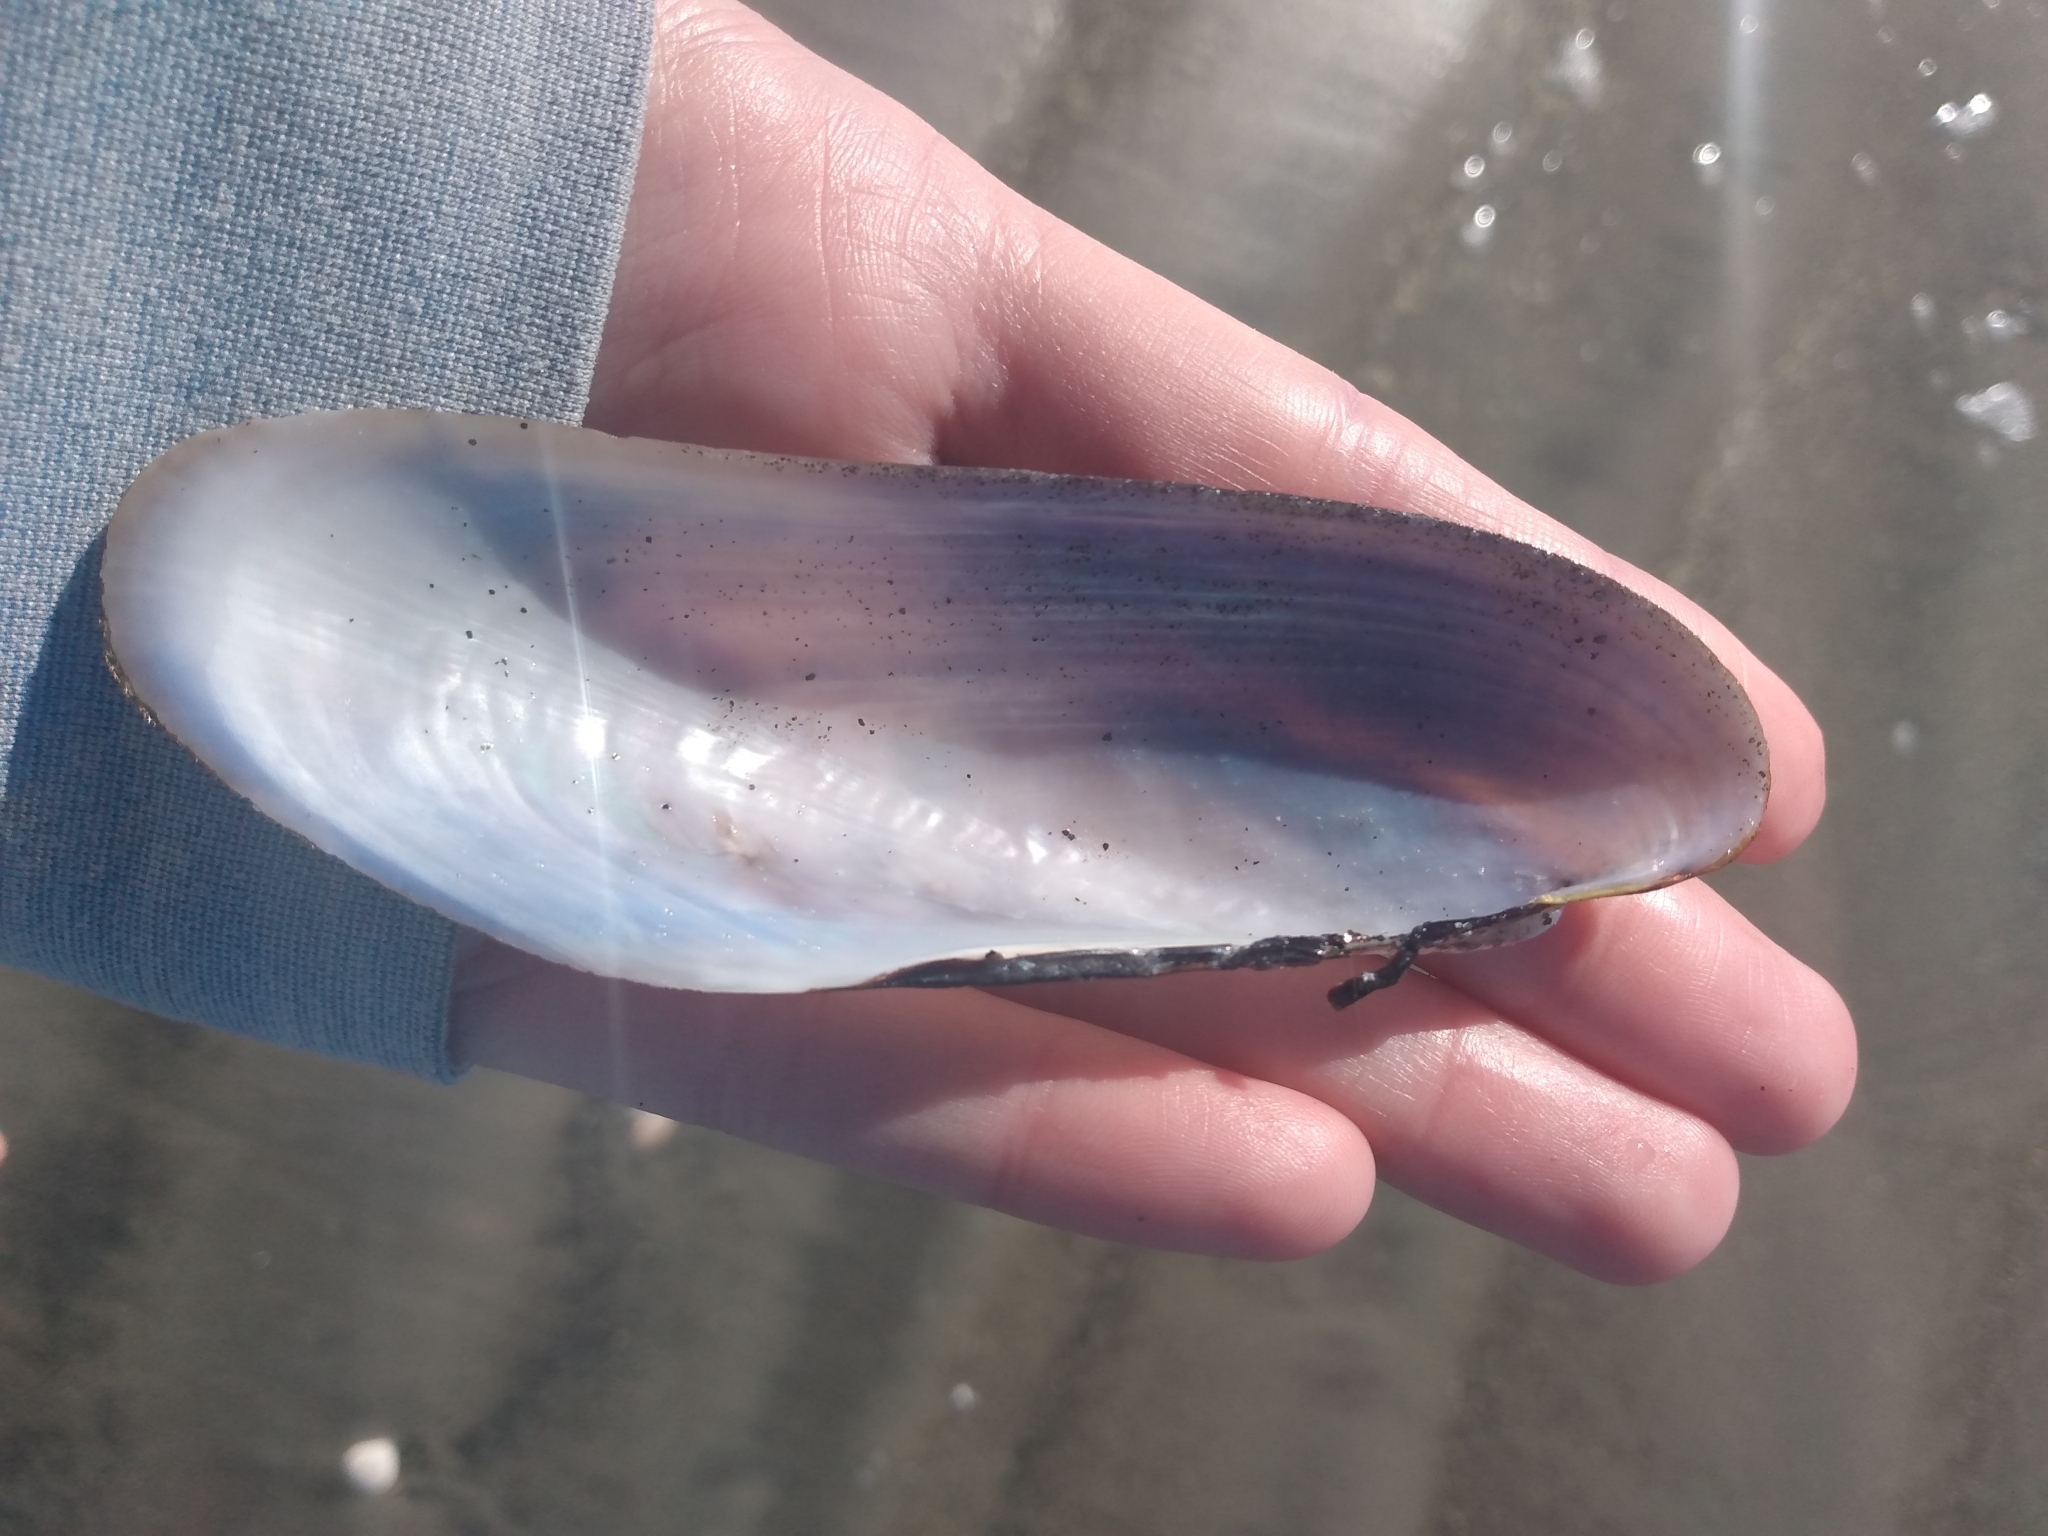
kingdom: Animalia
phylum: Mollusca
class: Bivalvia
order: Mytilida
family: Mytilidae
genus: Modiolatus
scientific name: Modiolatus neglectus
